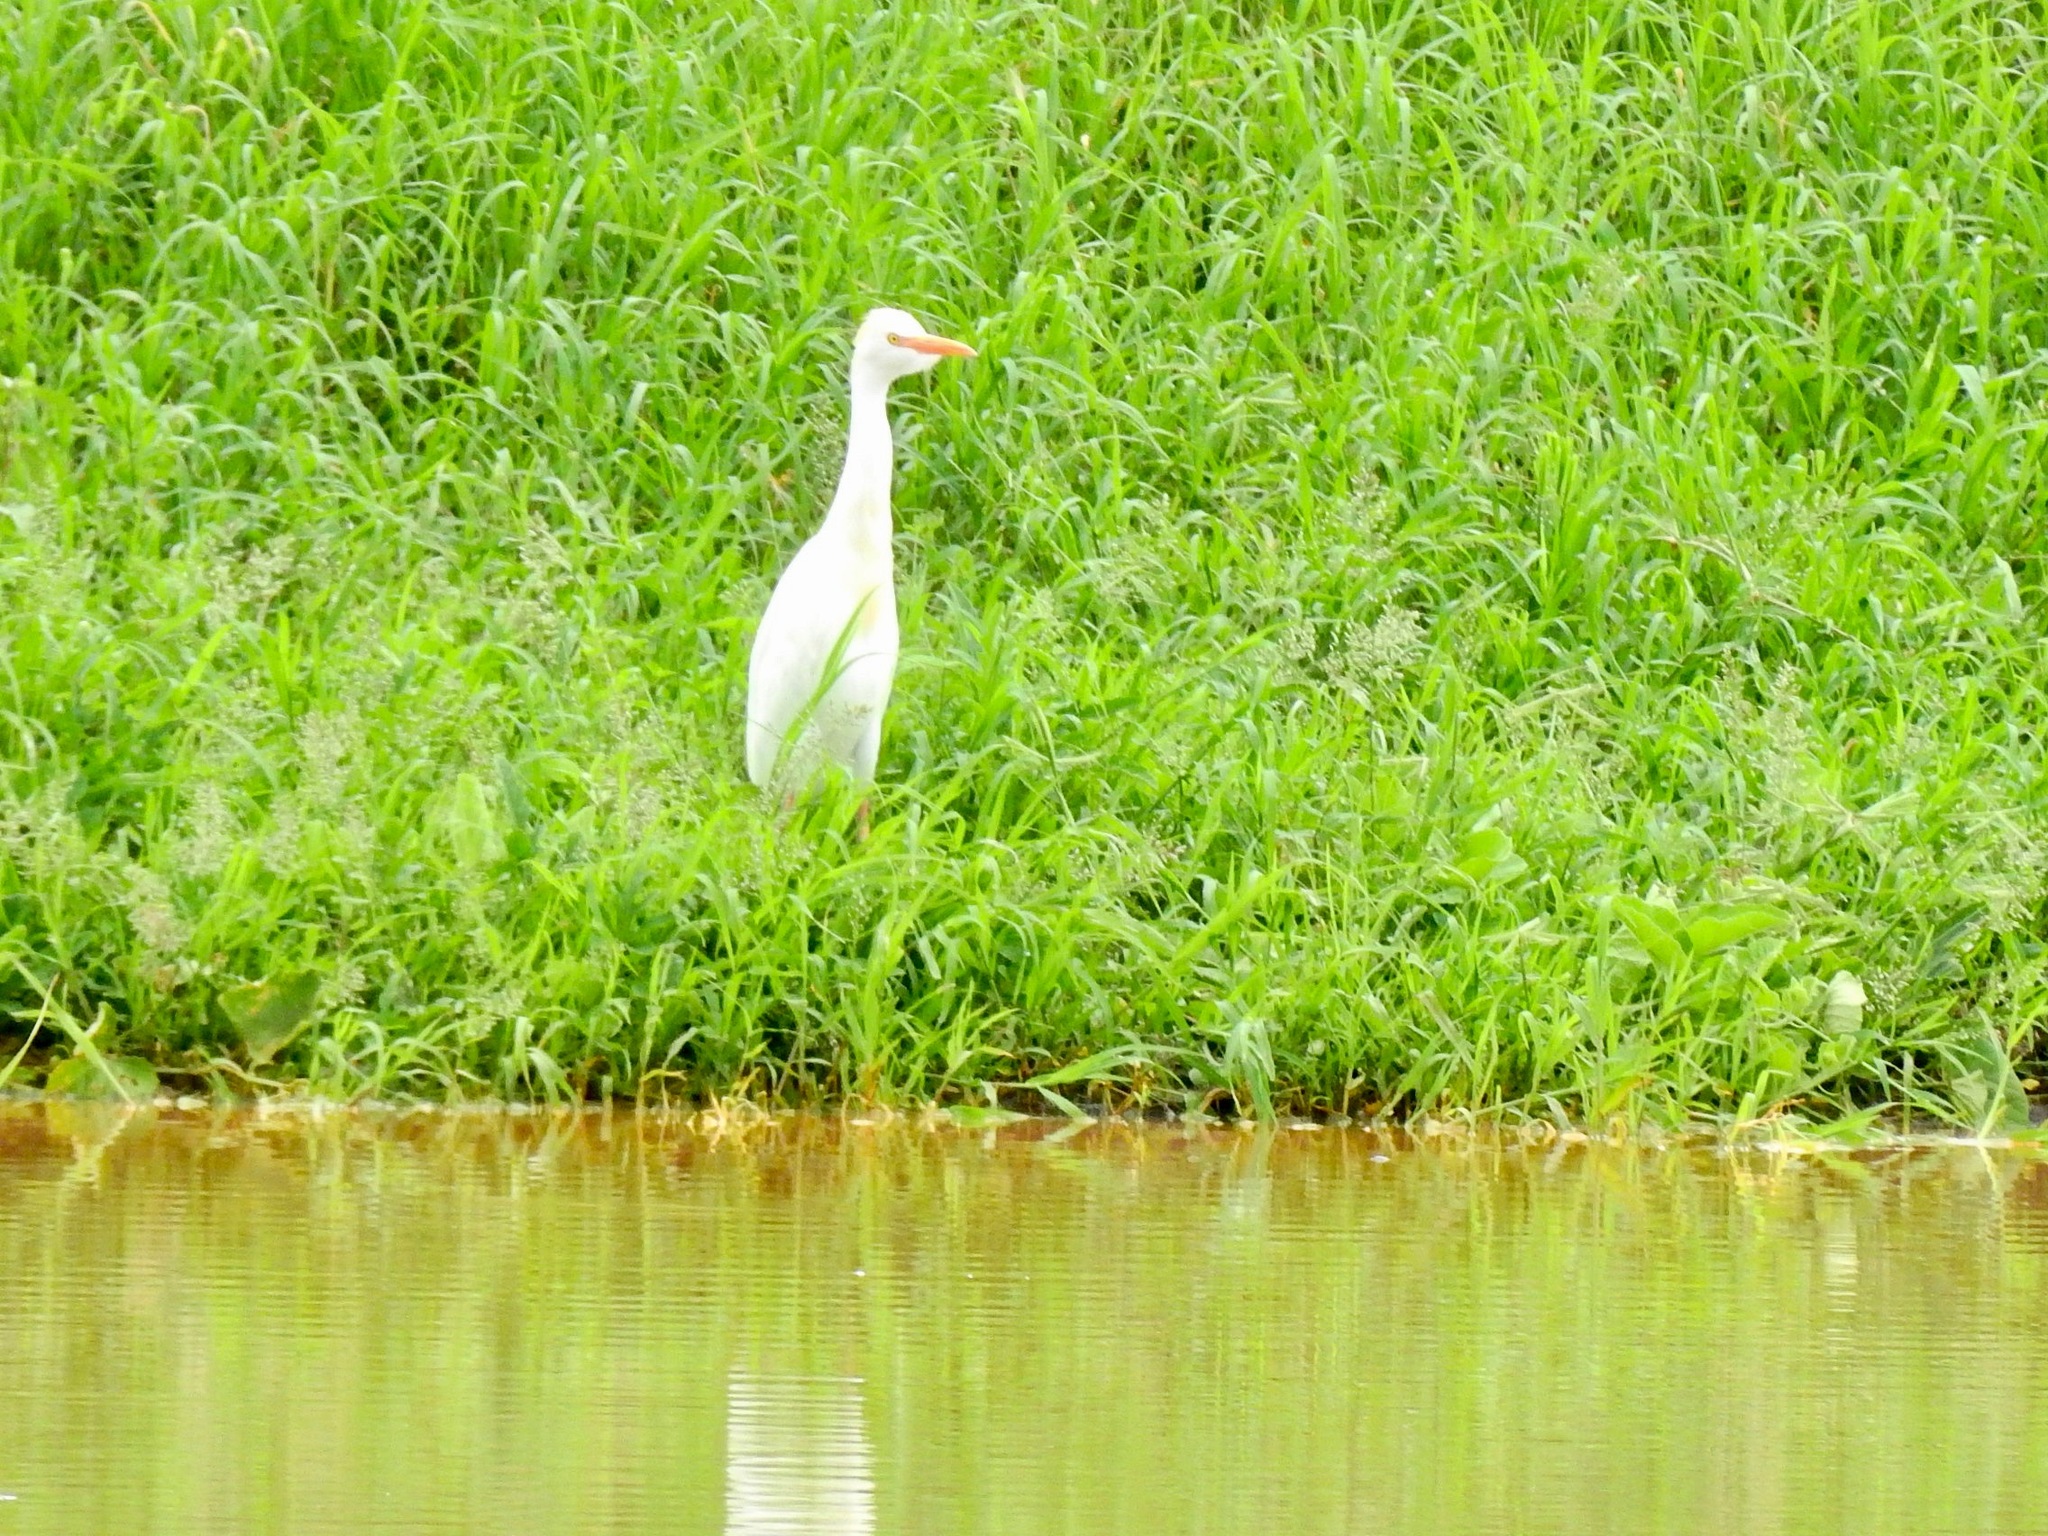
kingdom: Animalia
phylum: Chordata
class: Aves
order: Pelecaniformes
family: Ardeidae
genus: Bubulcus
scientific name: Bubulcus ibis
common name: Cattle egret
